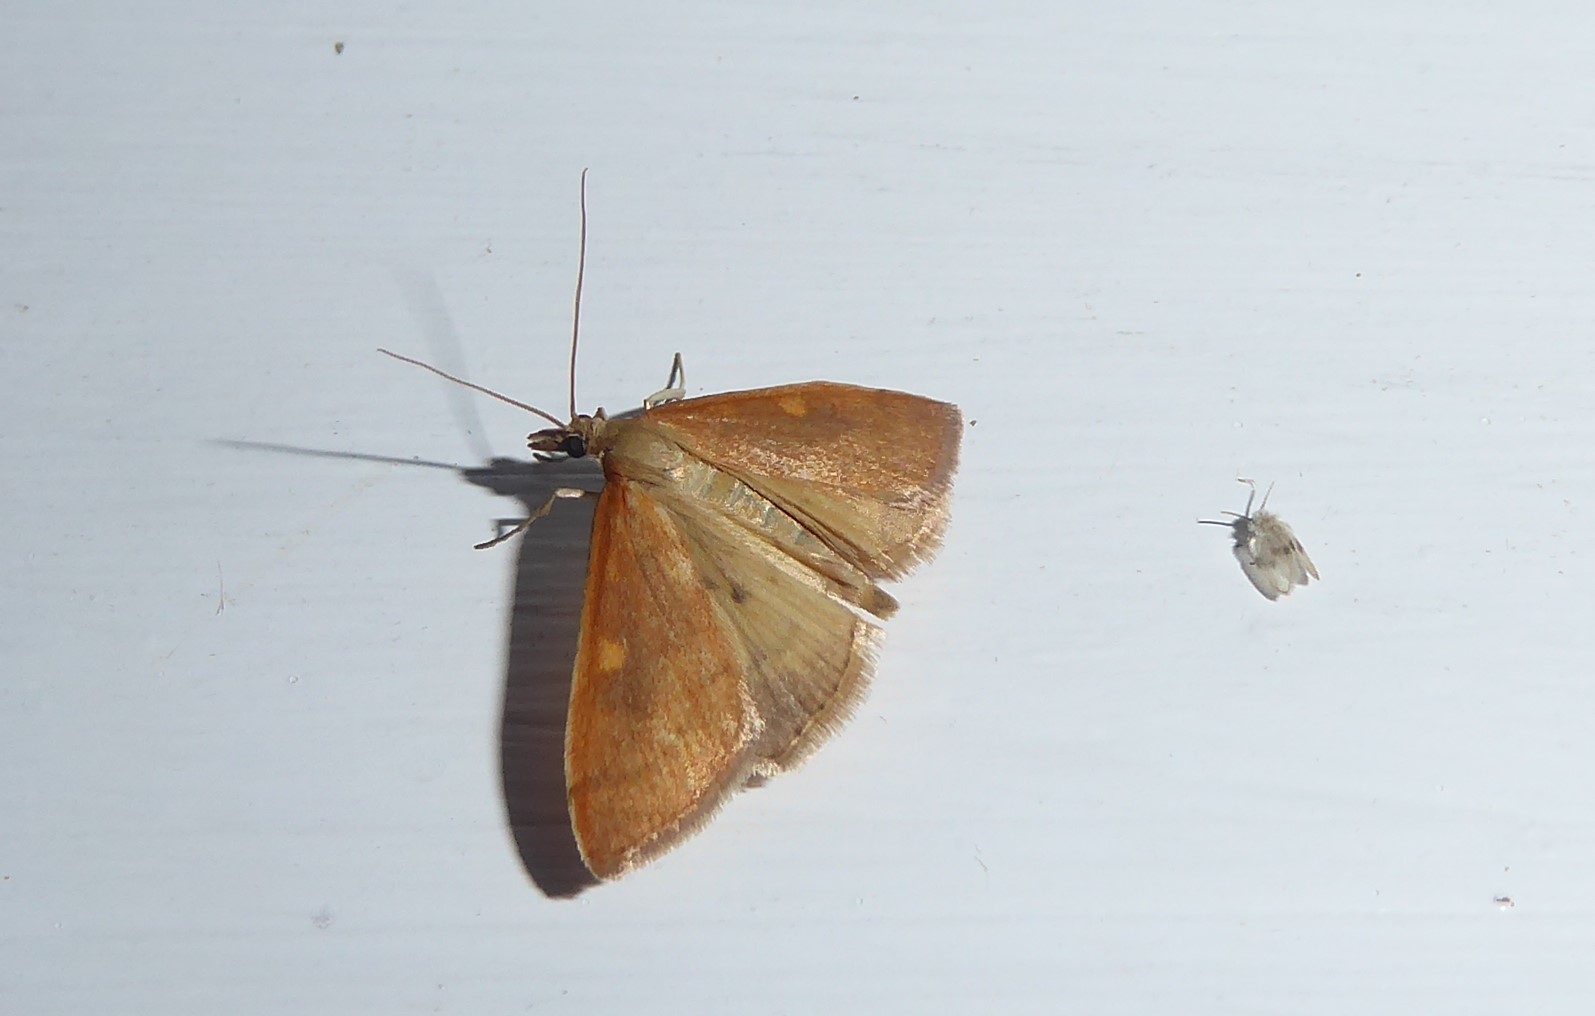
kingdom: Animalia
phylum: Arthropoda
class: Insecta
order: Lepidoptera
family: Crambidae
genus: Udea
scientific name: Udea Mnesictena flavidalis
